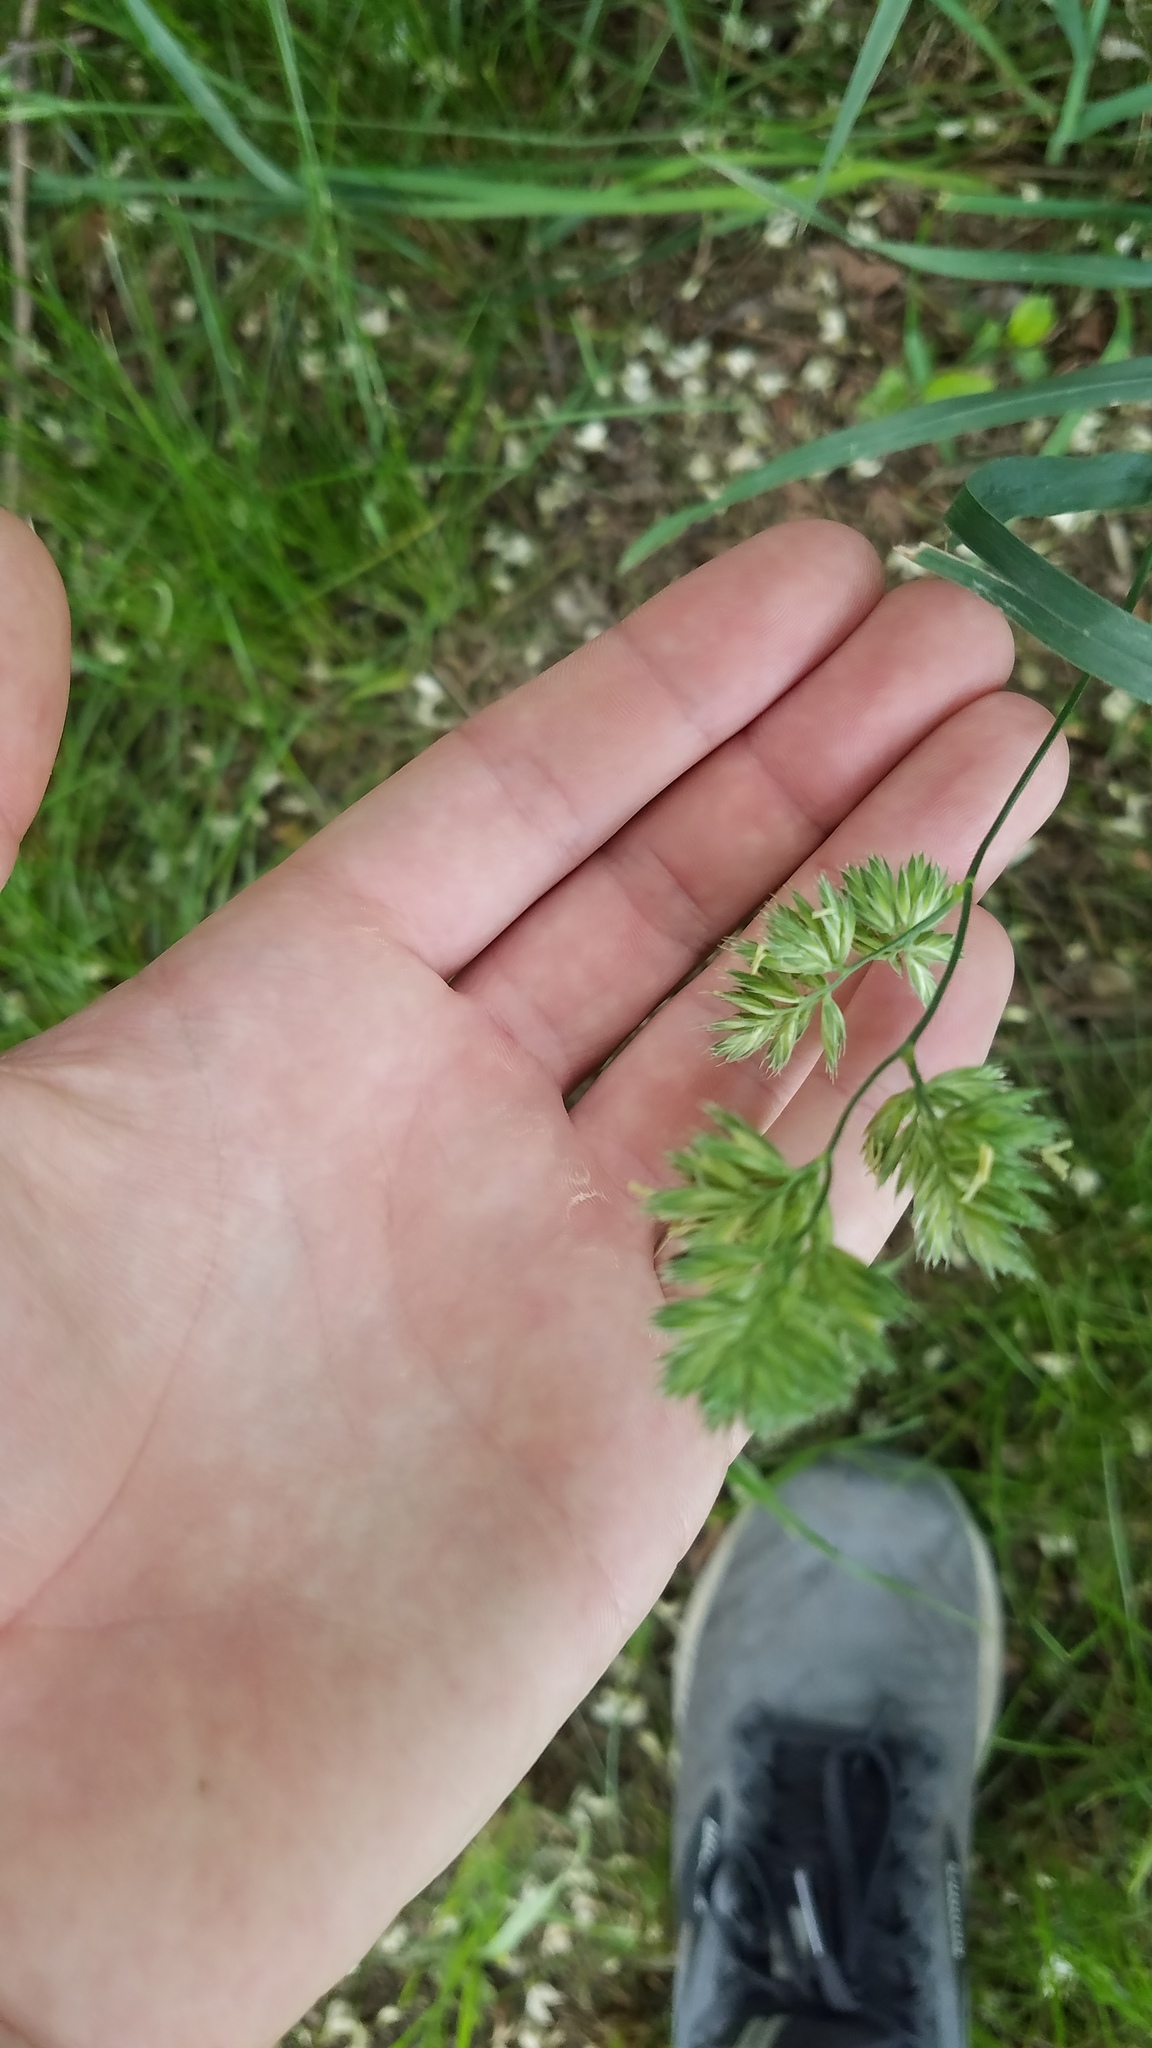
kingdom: Plantae
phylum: Tracheophyta
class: Liliopsida
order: Poales
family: Poaceae
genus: Dactylis
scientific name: Dactylis glomerata
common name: Orchardgrass
